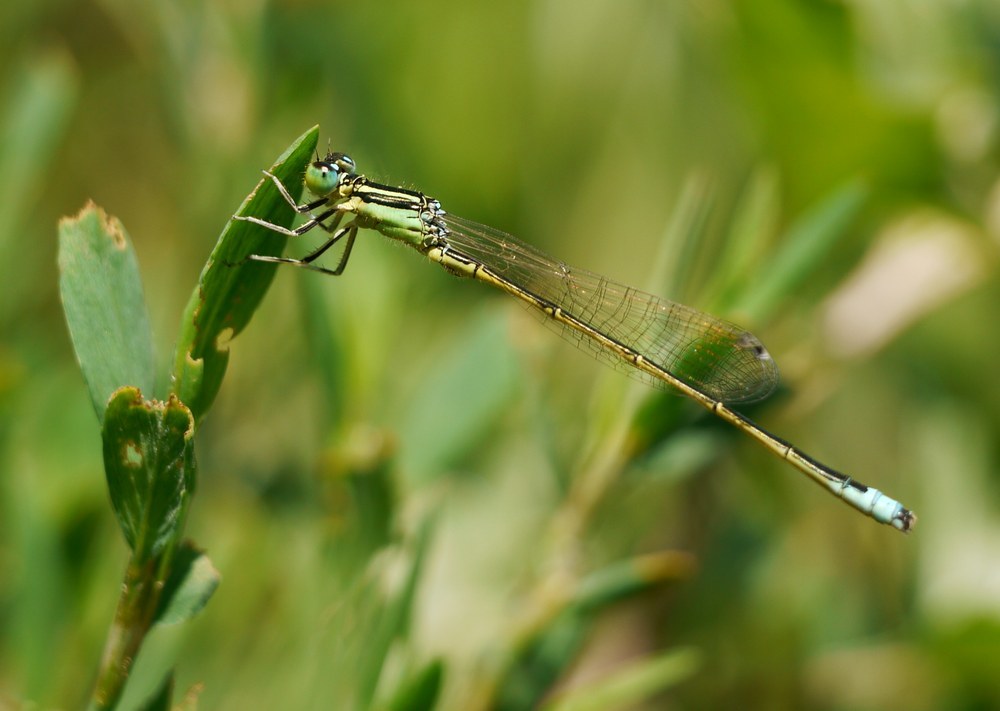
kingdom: Animalia
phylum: Arthropoda
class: Insecta
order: Odonata
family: Coenagrionidae
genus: Ischnura
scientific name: Ischnura pumilio
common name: Scarce blue-tailed damselfly
